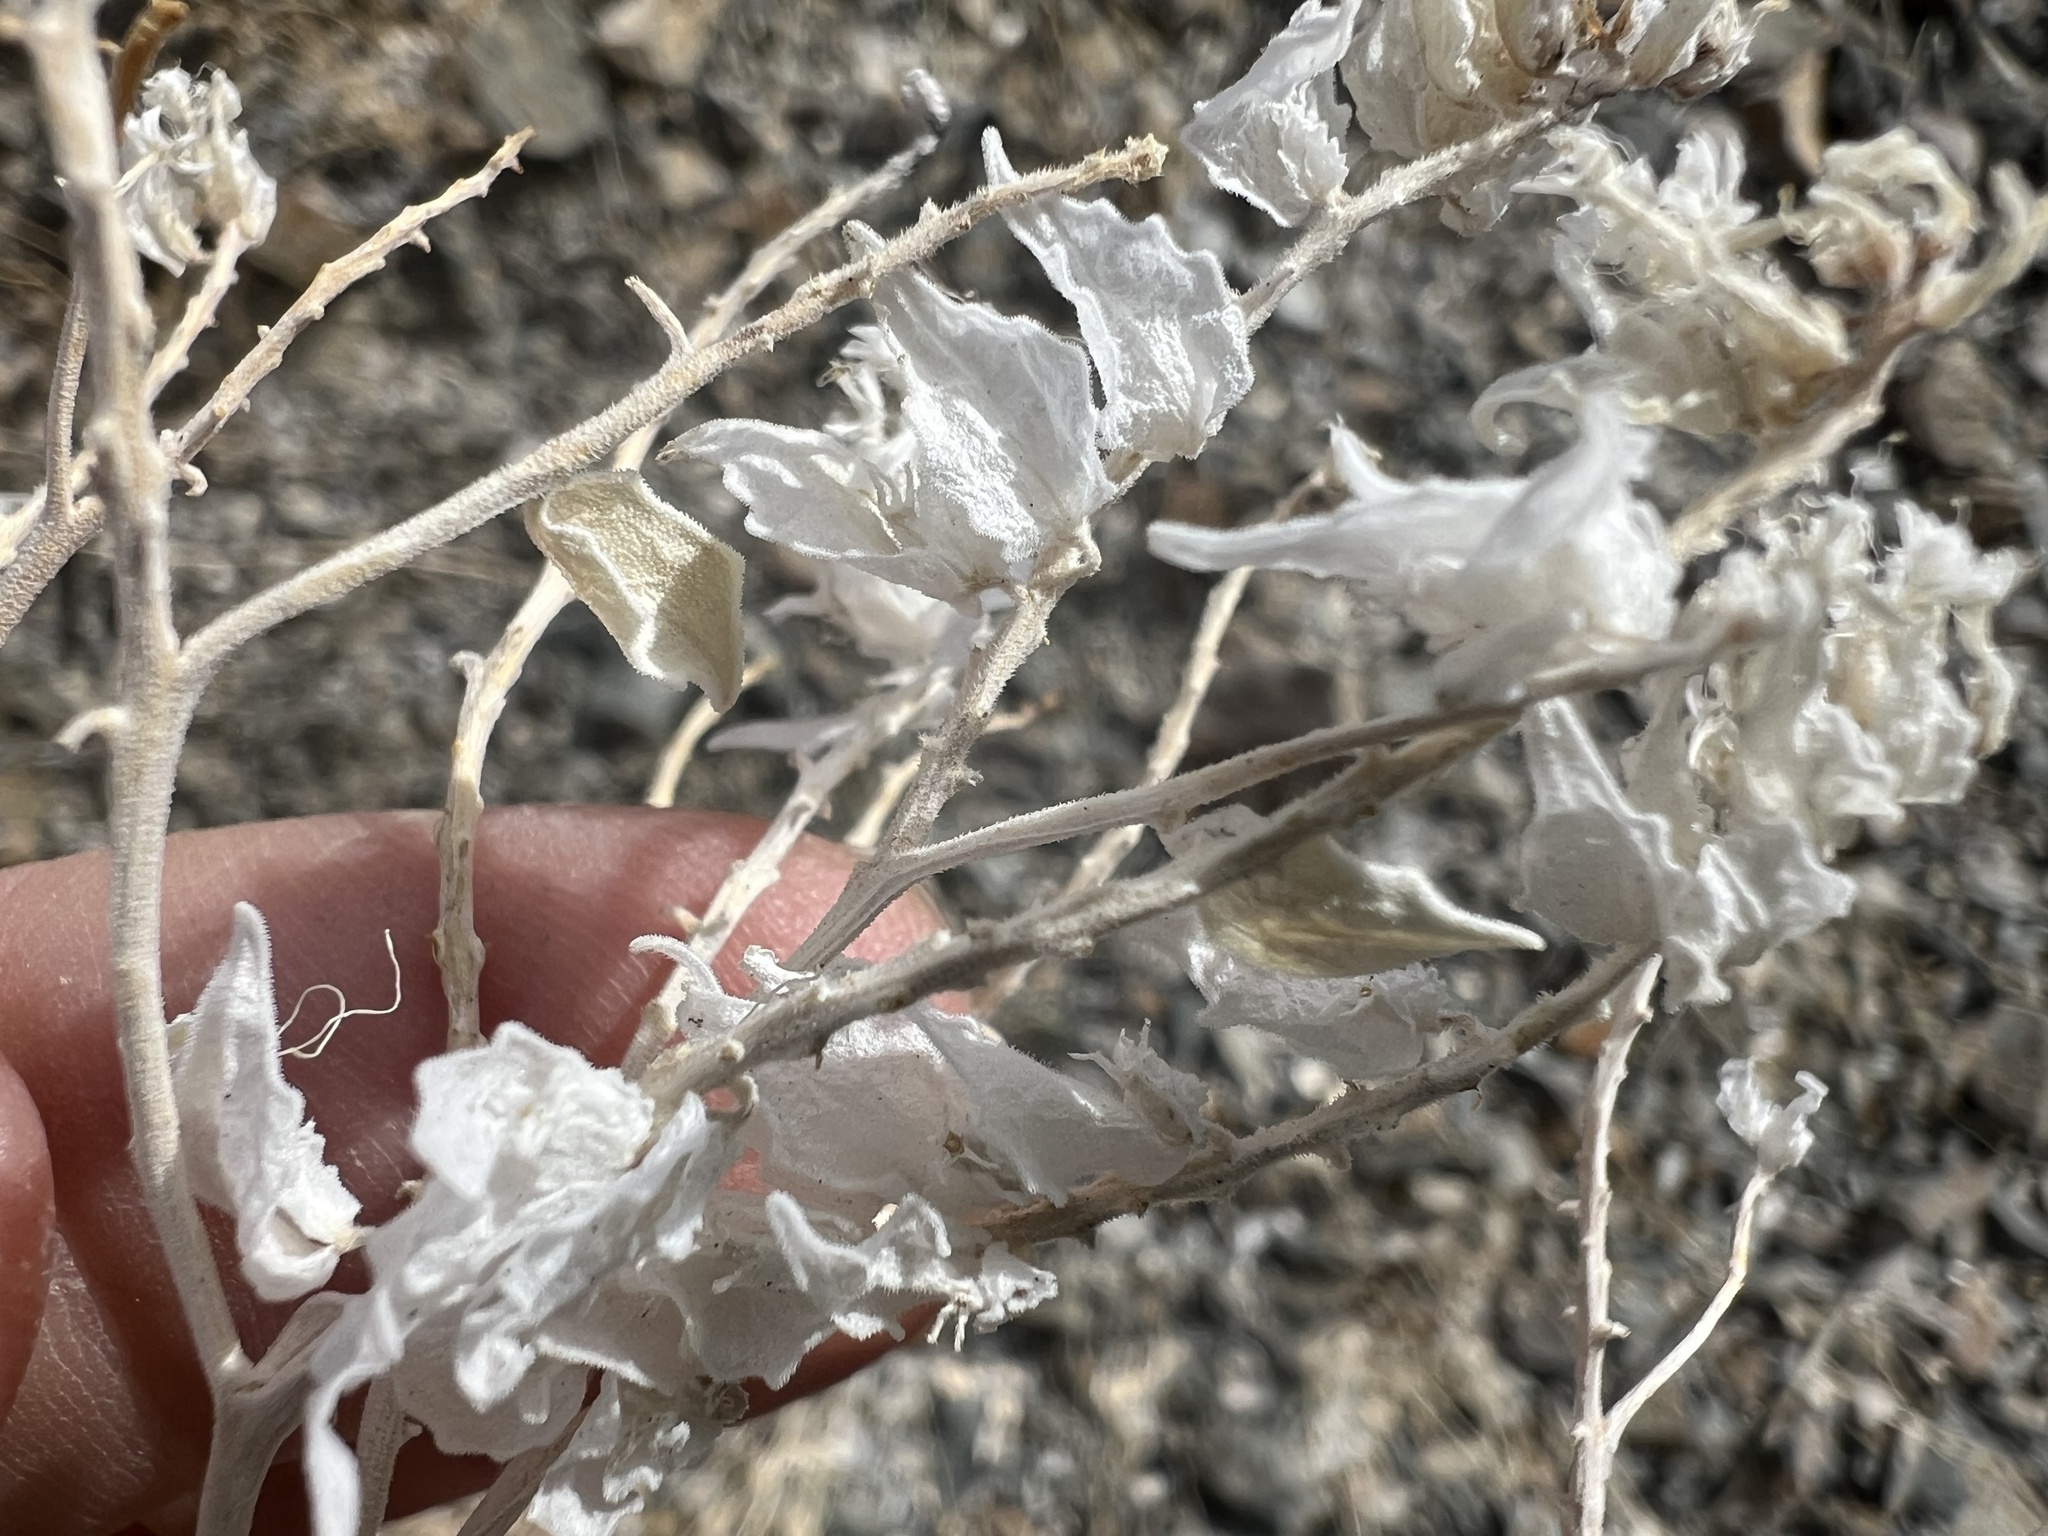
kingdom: Plantae
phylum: Tracheophyta
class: Magnoliopsida
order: Cornales
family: Loasaceae
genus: Petalonyx
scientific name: Petalonyx nitidus
